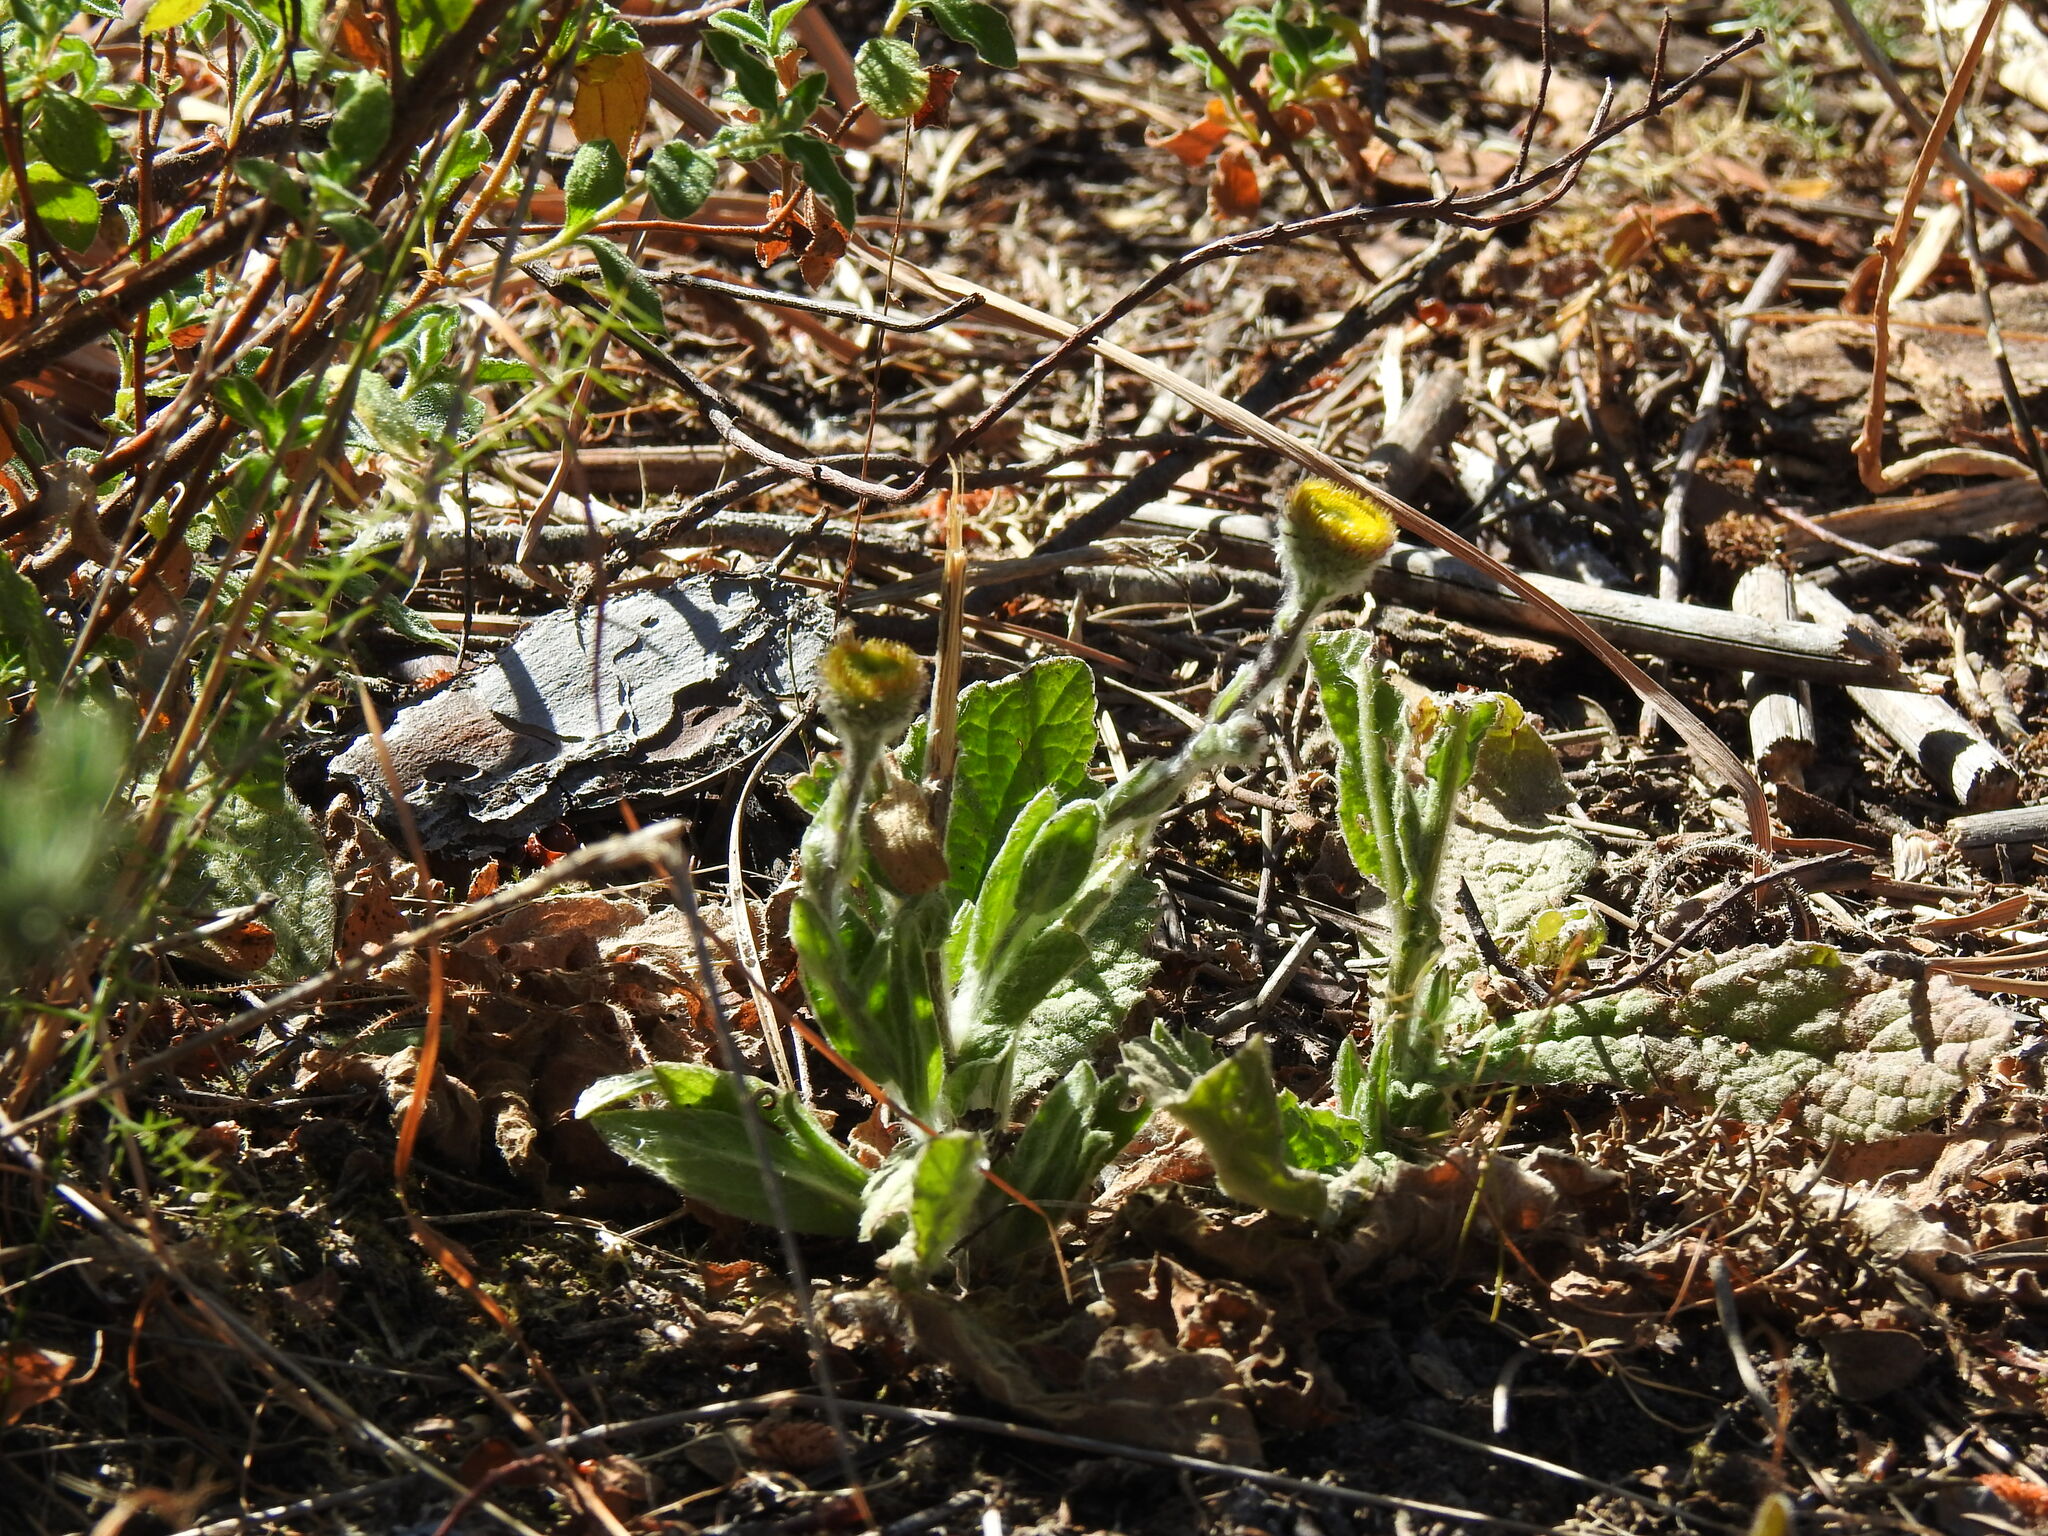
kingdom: Plantae
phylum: Tracheophyta
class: Magnoliopsida
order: Asterales
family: Asteraceae
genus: Pulicaria
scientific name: Pulicaria odora
